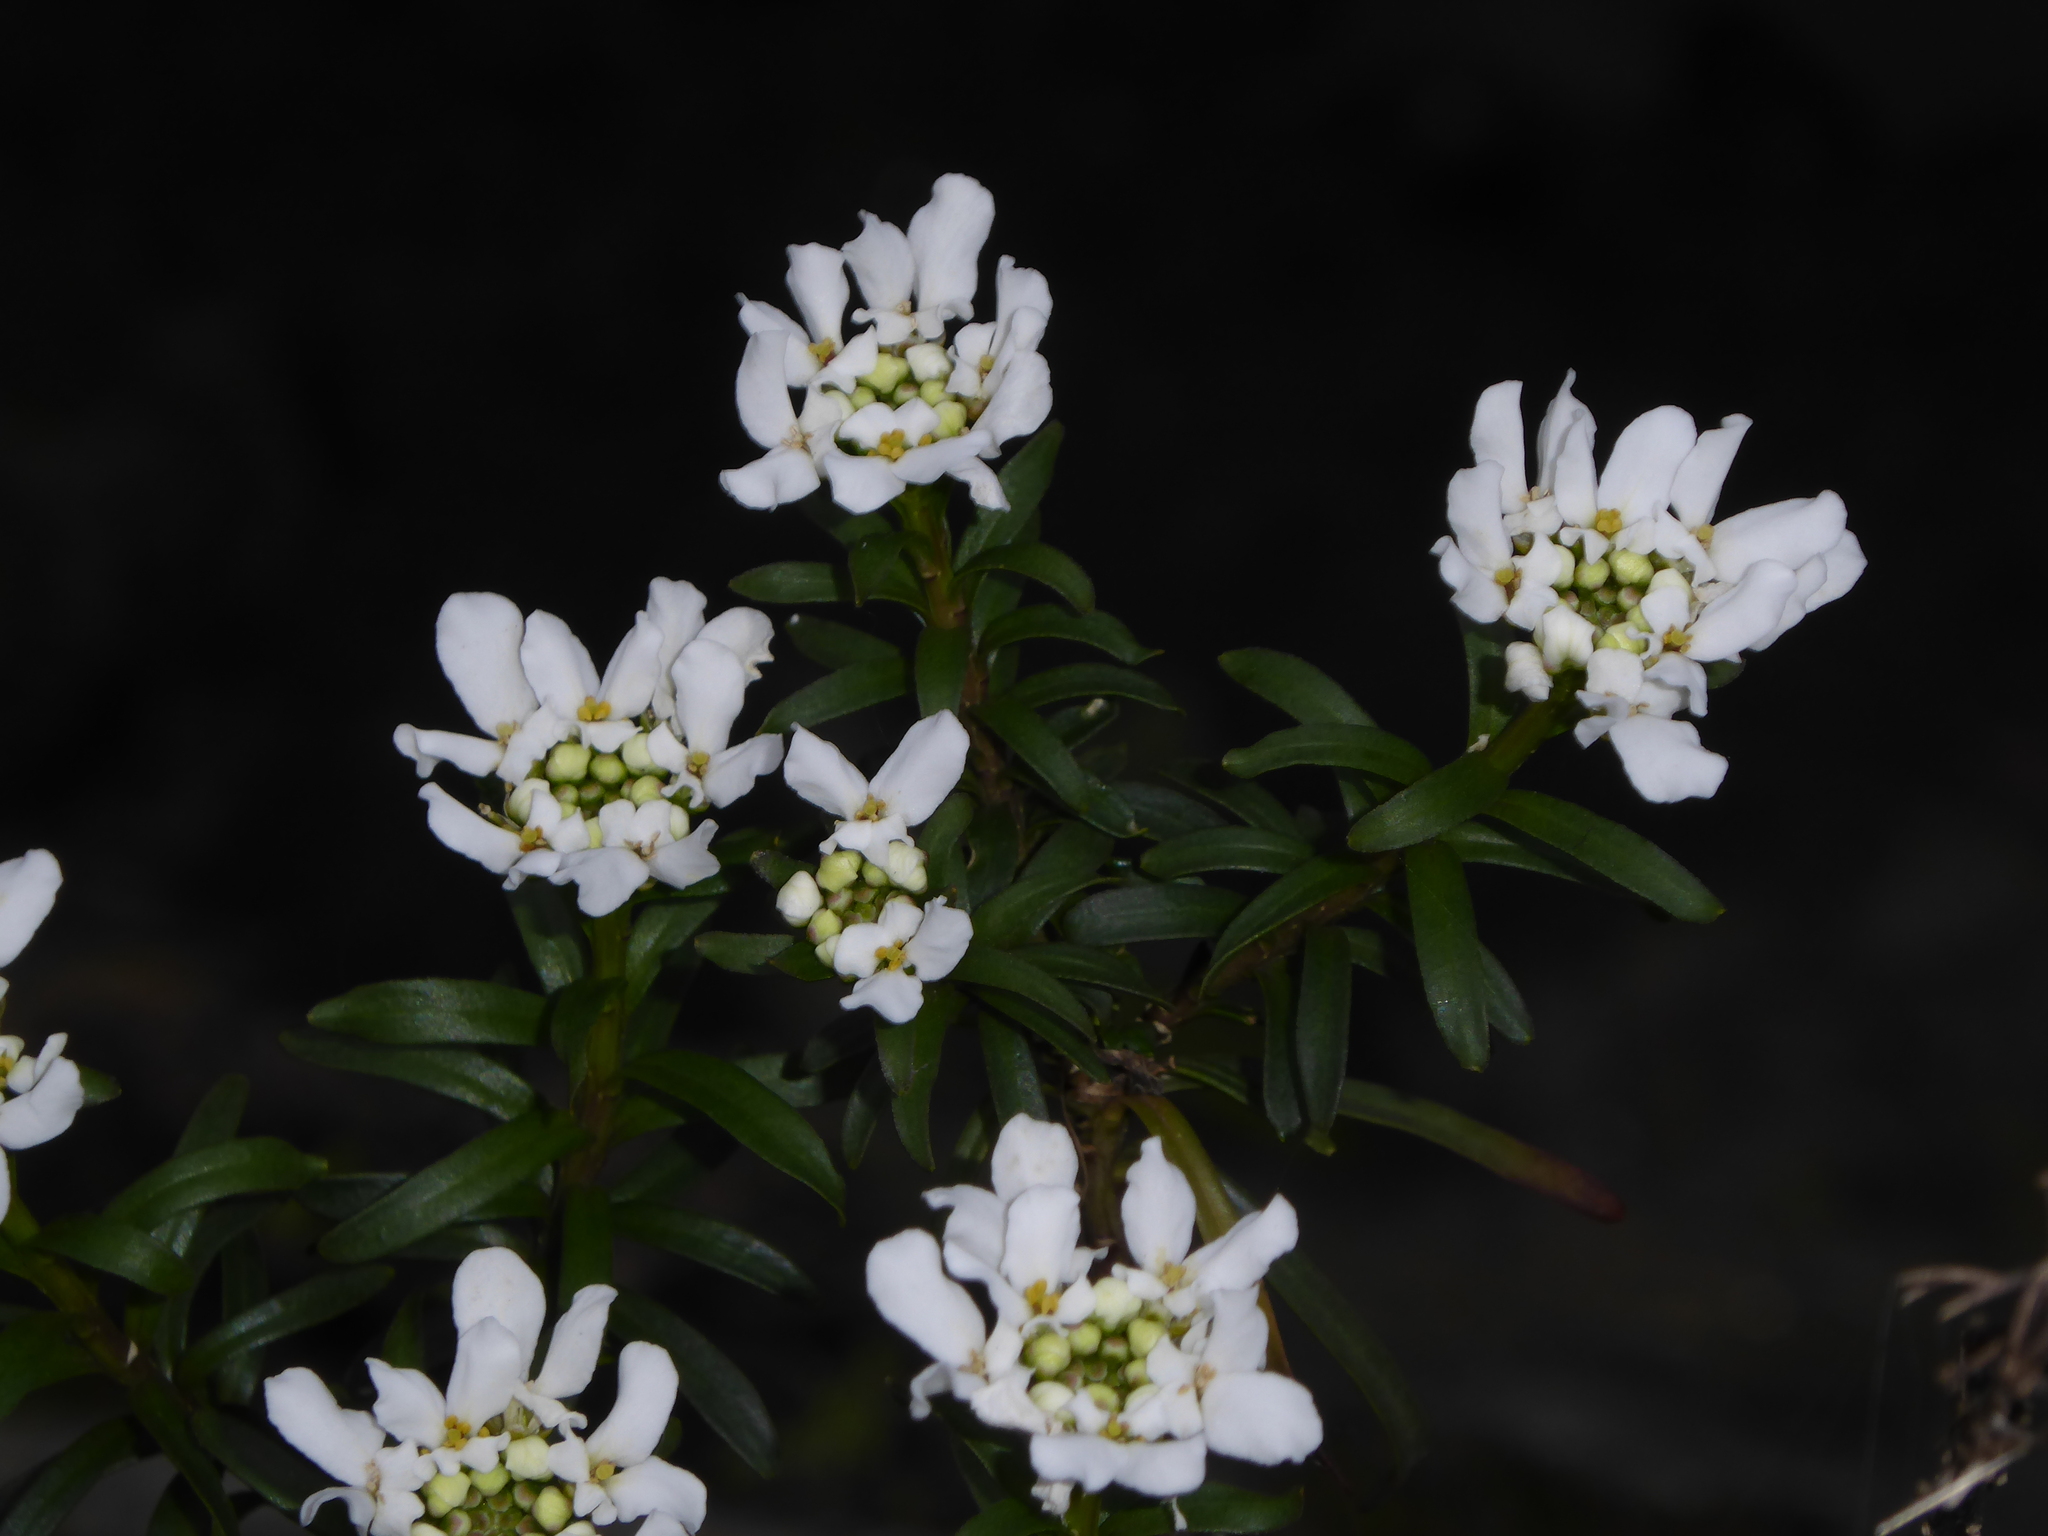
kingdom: Plantae
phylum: Tracheophyta
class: Magnoliopsida
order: Brassicales
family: Brassicaceae
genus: Iberis
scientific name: Iberis sempervirens
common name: Evergreen candytuft
